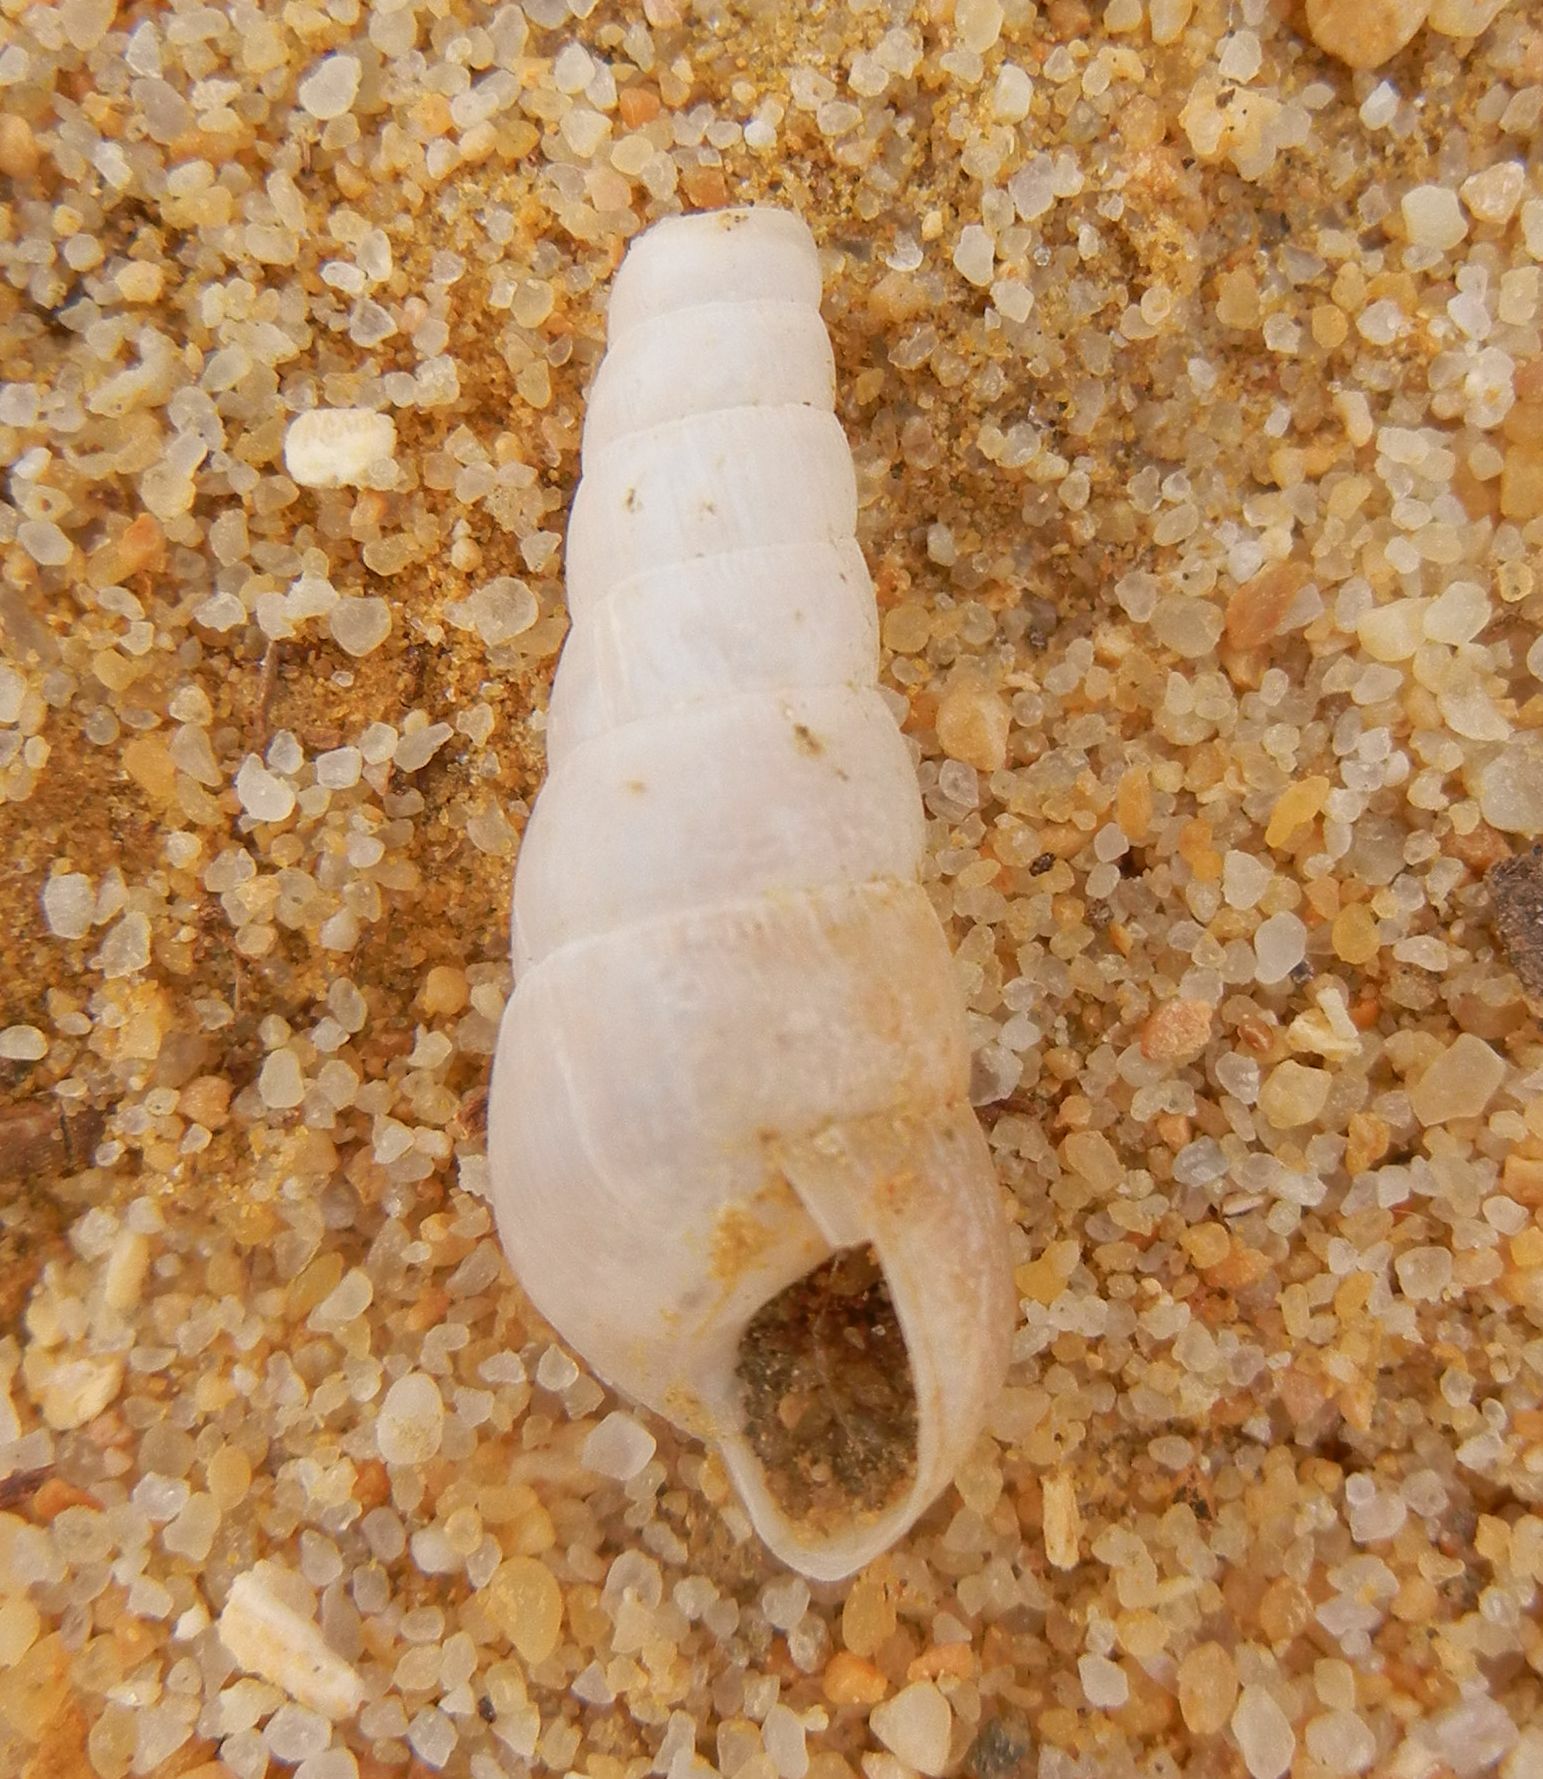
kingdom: Animalia
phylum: Mollusca
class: Gastropoda
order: Stylommatophora
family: Achatinidae
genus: Rumina
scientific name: Rumina decollata
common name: Decollate snail
